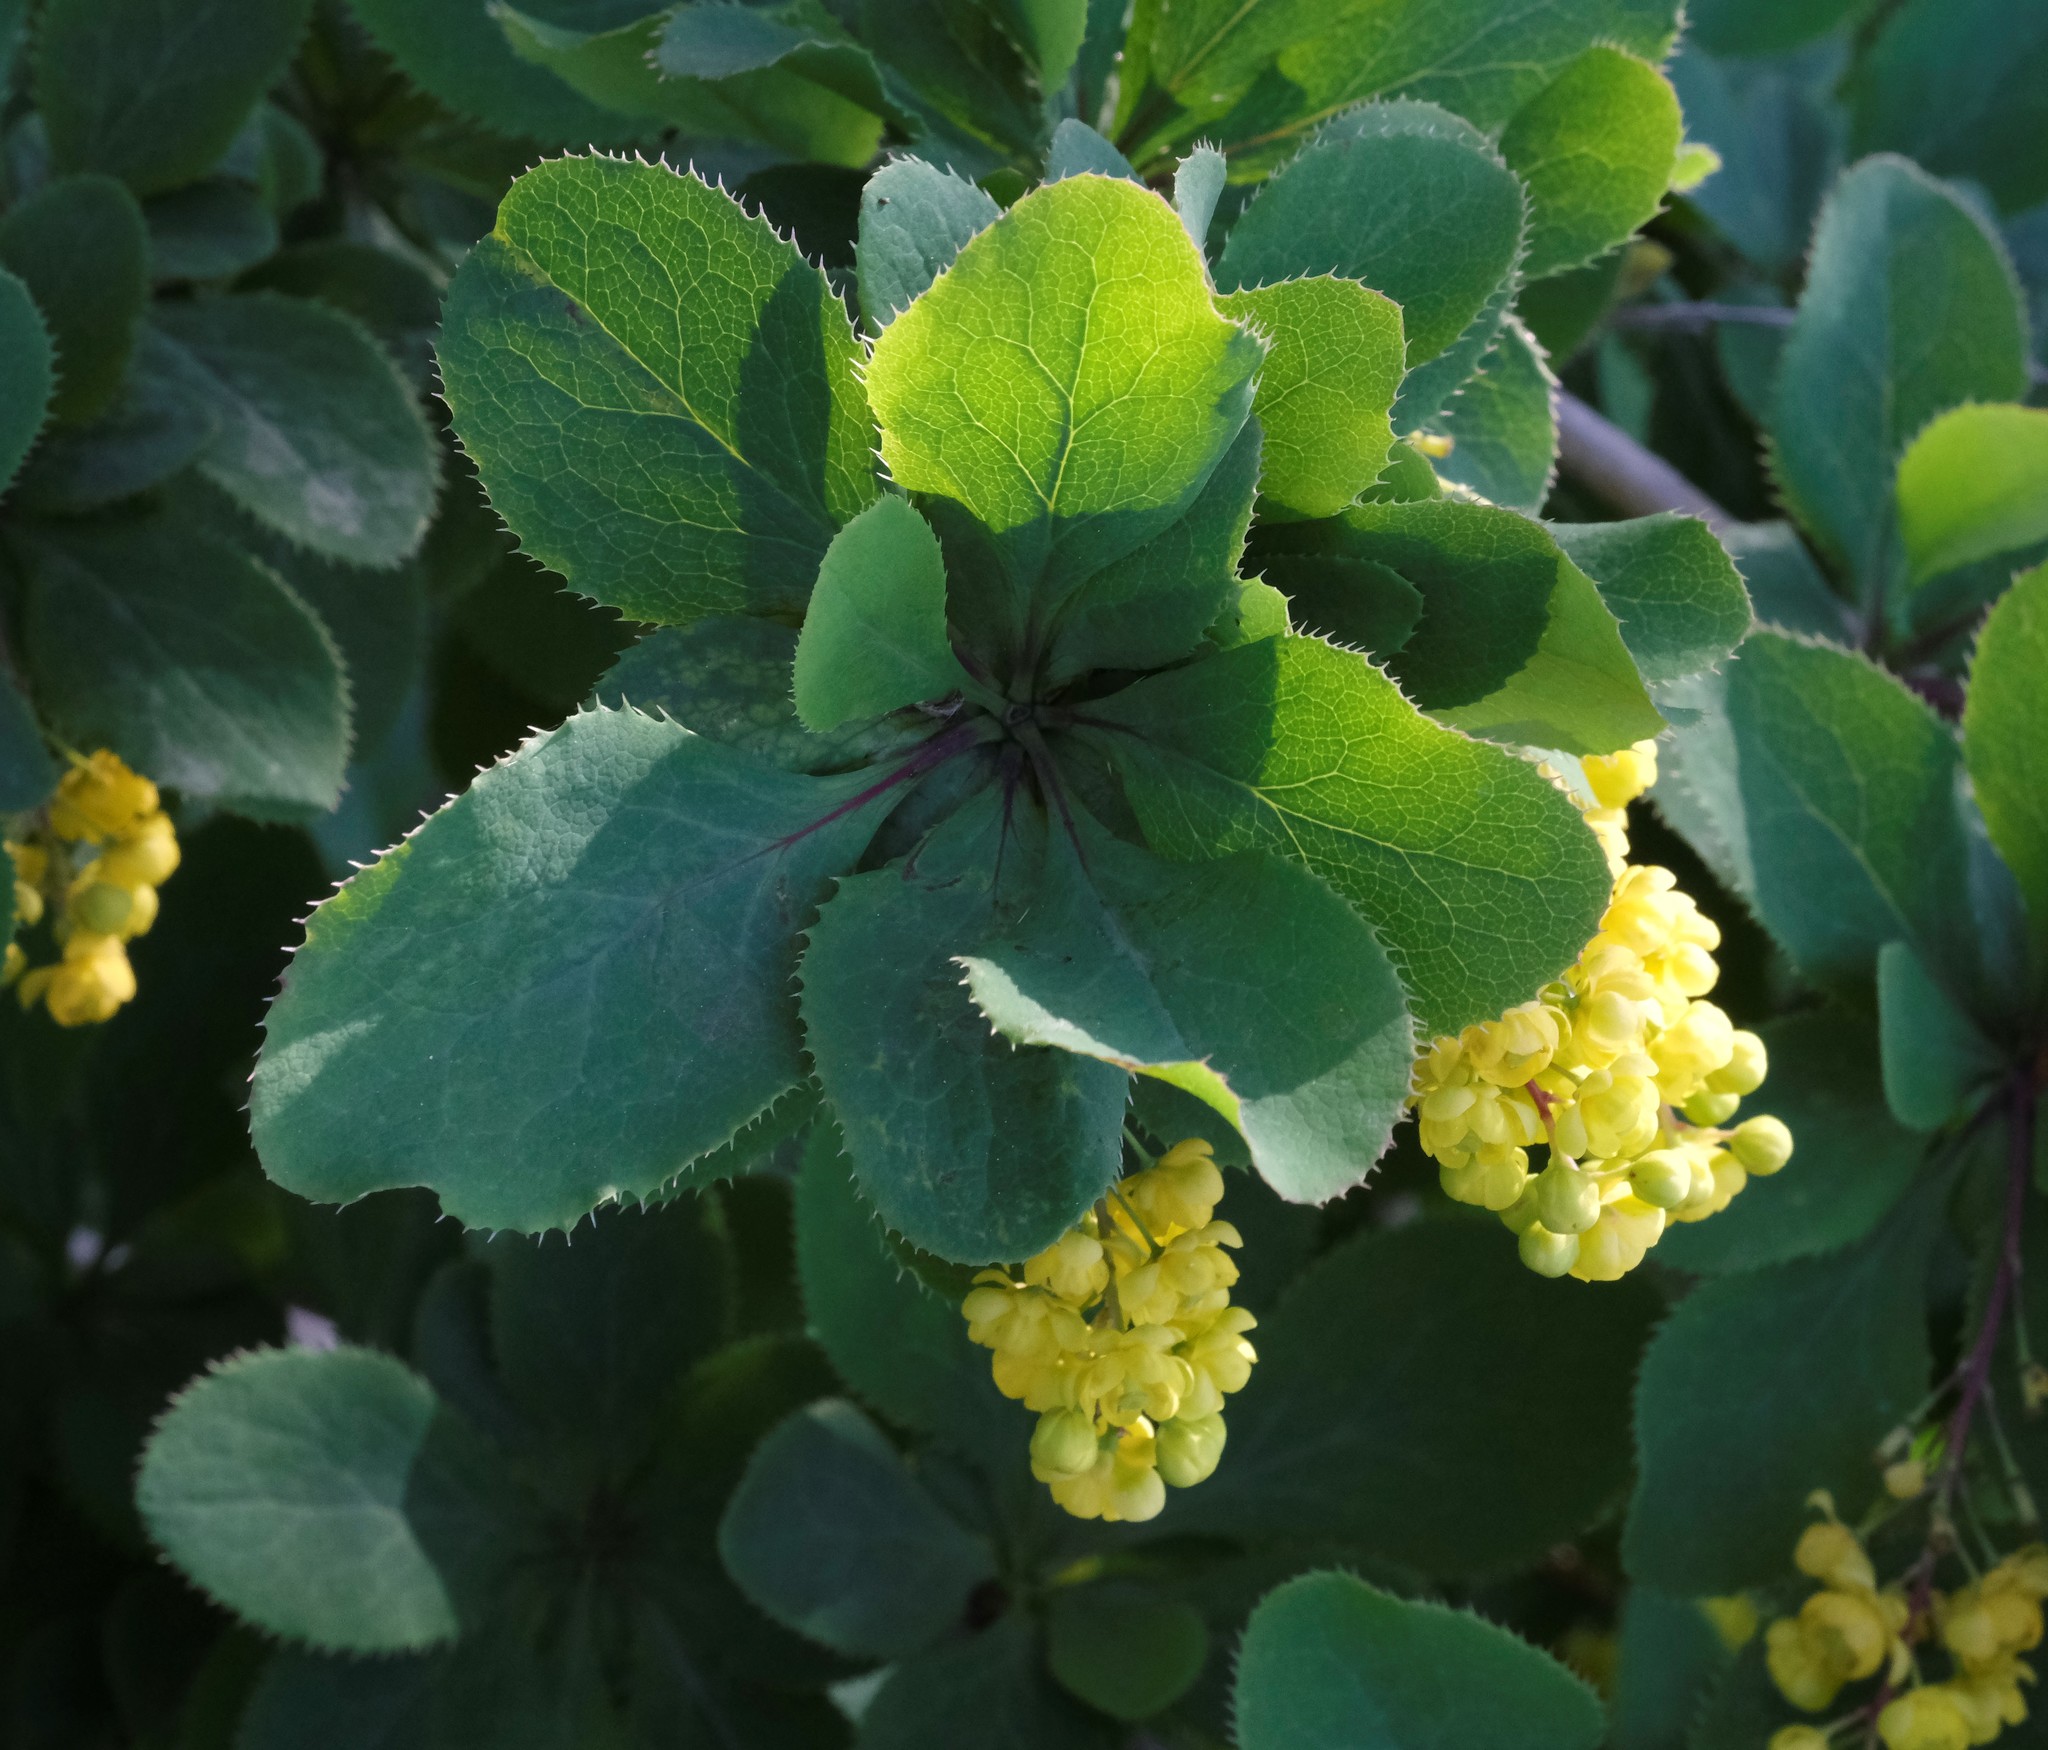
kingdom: Plantae
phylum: Tracheophyta
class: Magnoliopsida
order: Ranunculales
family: Berberidaceae
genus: Berberis
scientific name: Berberis vulgaris
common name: Barberry
